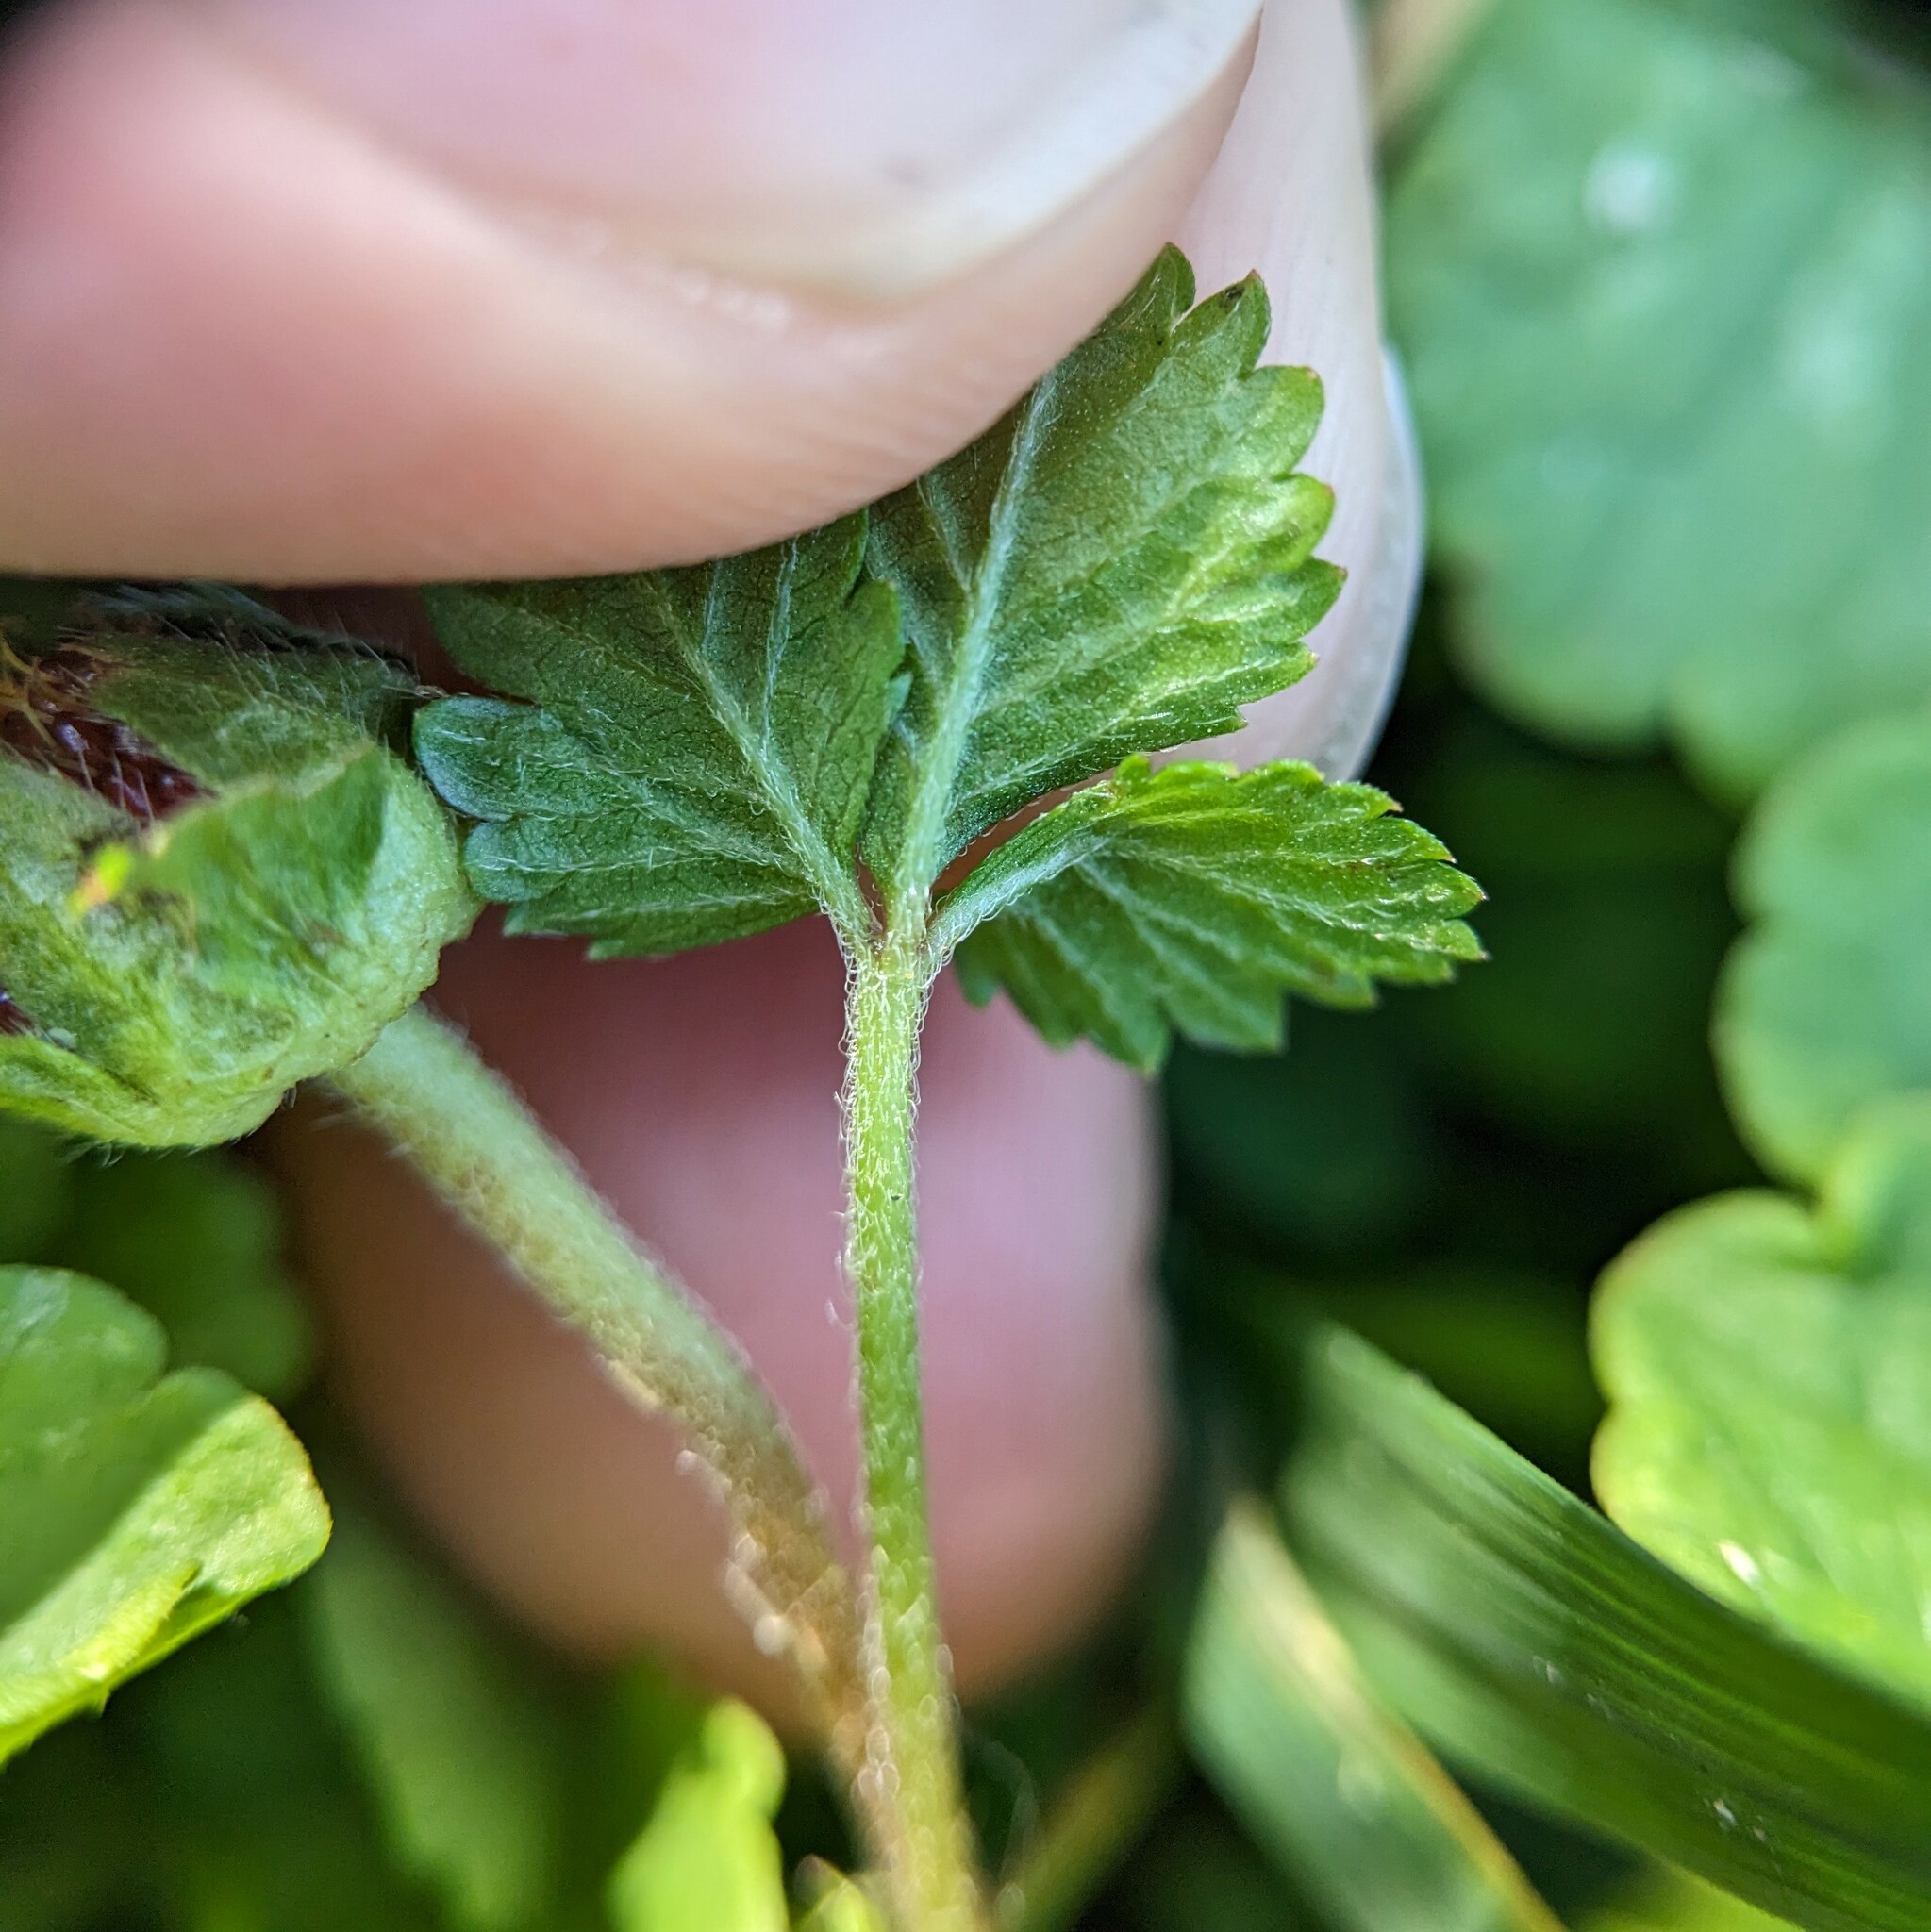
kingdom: Plantae
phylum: Tracheophyta
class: Magnoliopsida
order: Rosales
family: Rosaceae
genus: Potentilla
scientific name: Potentilla indica
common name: Yellow-flowered strawberry
